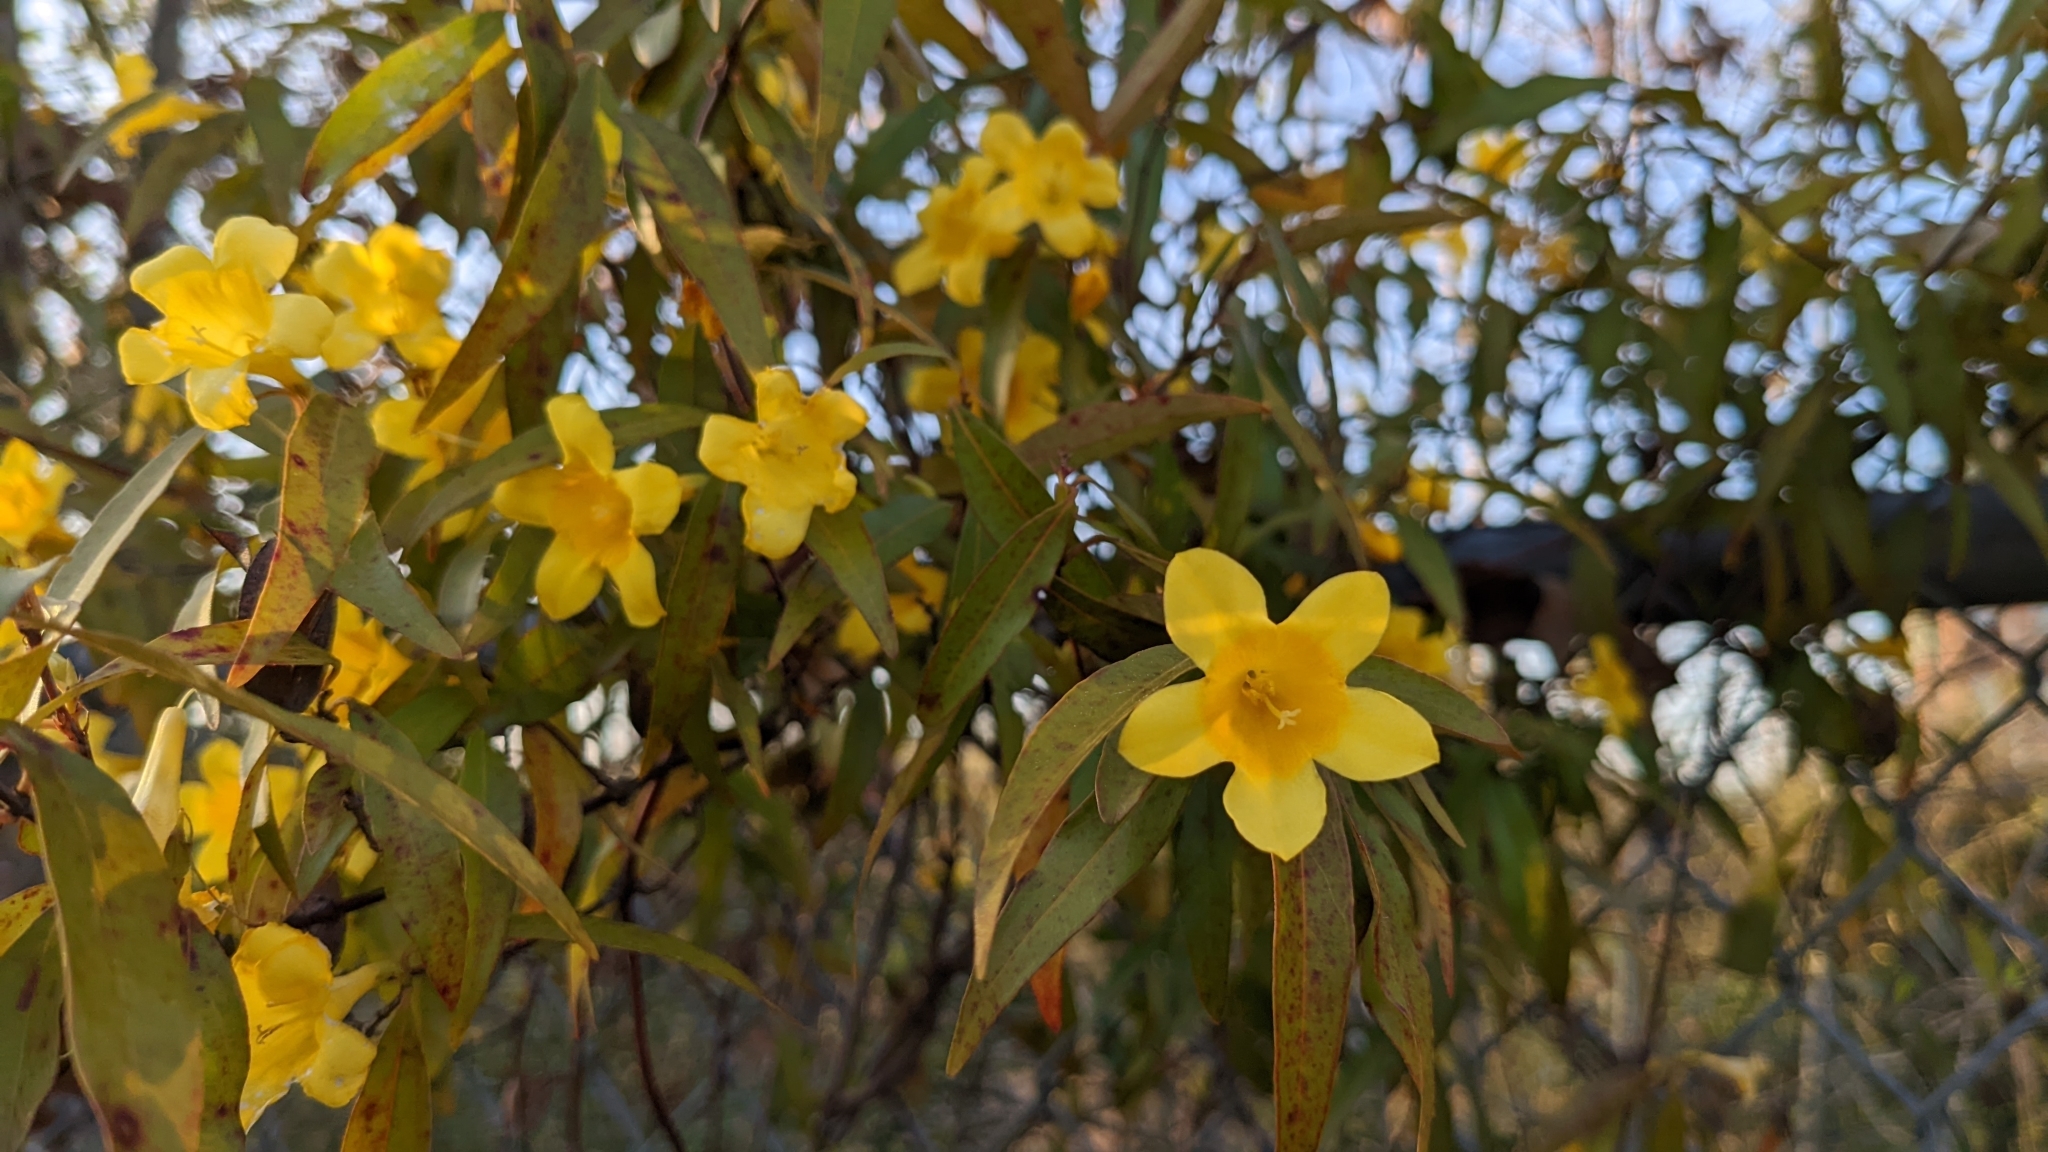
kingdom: Plantae
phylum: Tracheophyta
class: Magnoliopsida
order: Gentianales
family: Gelsemiaceae
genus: Gelsemium
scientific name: Gelsemium sempervirens
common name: Carolina-jasmine
